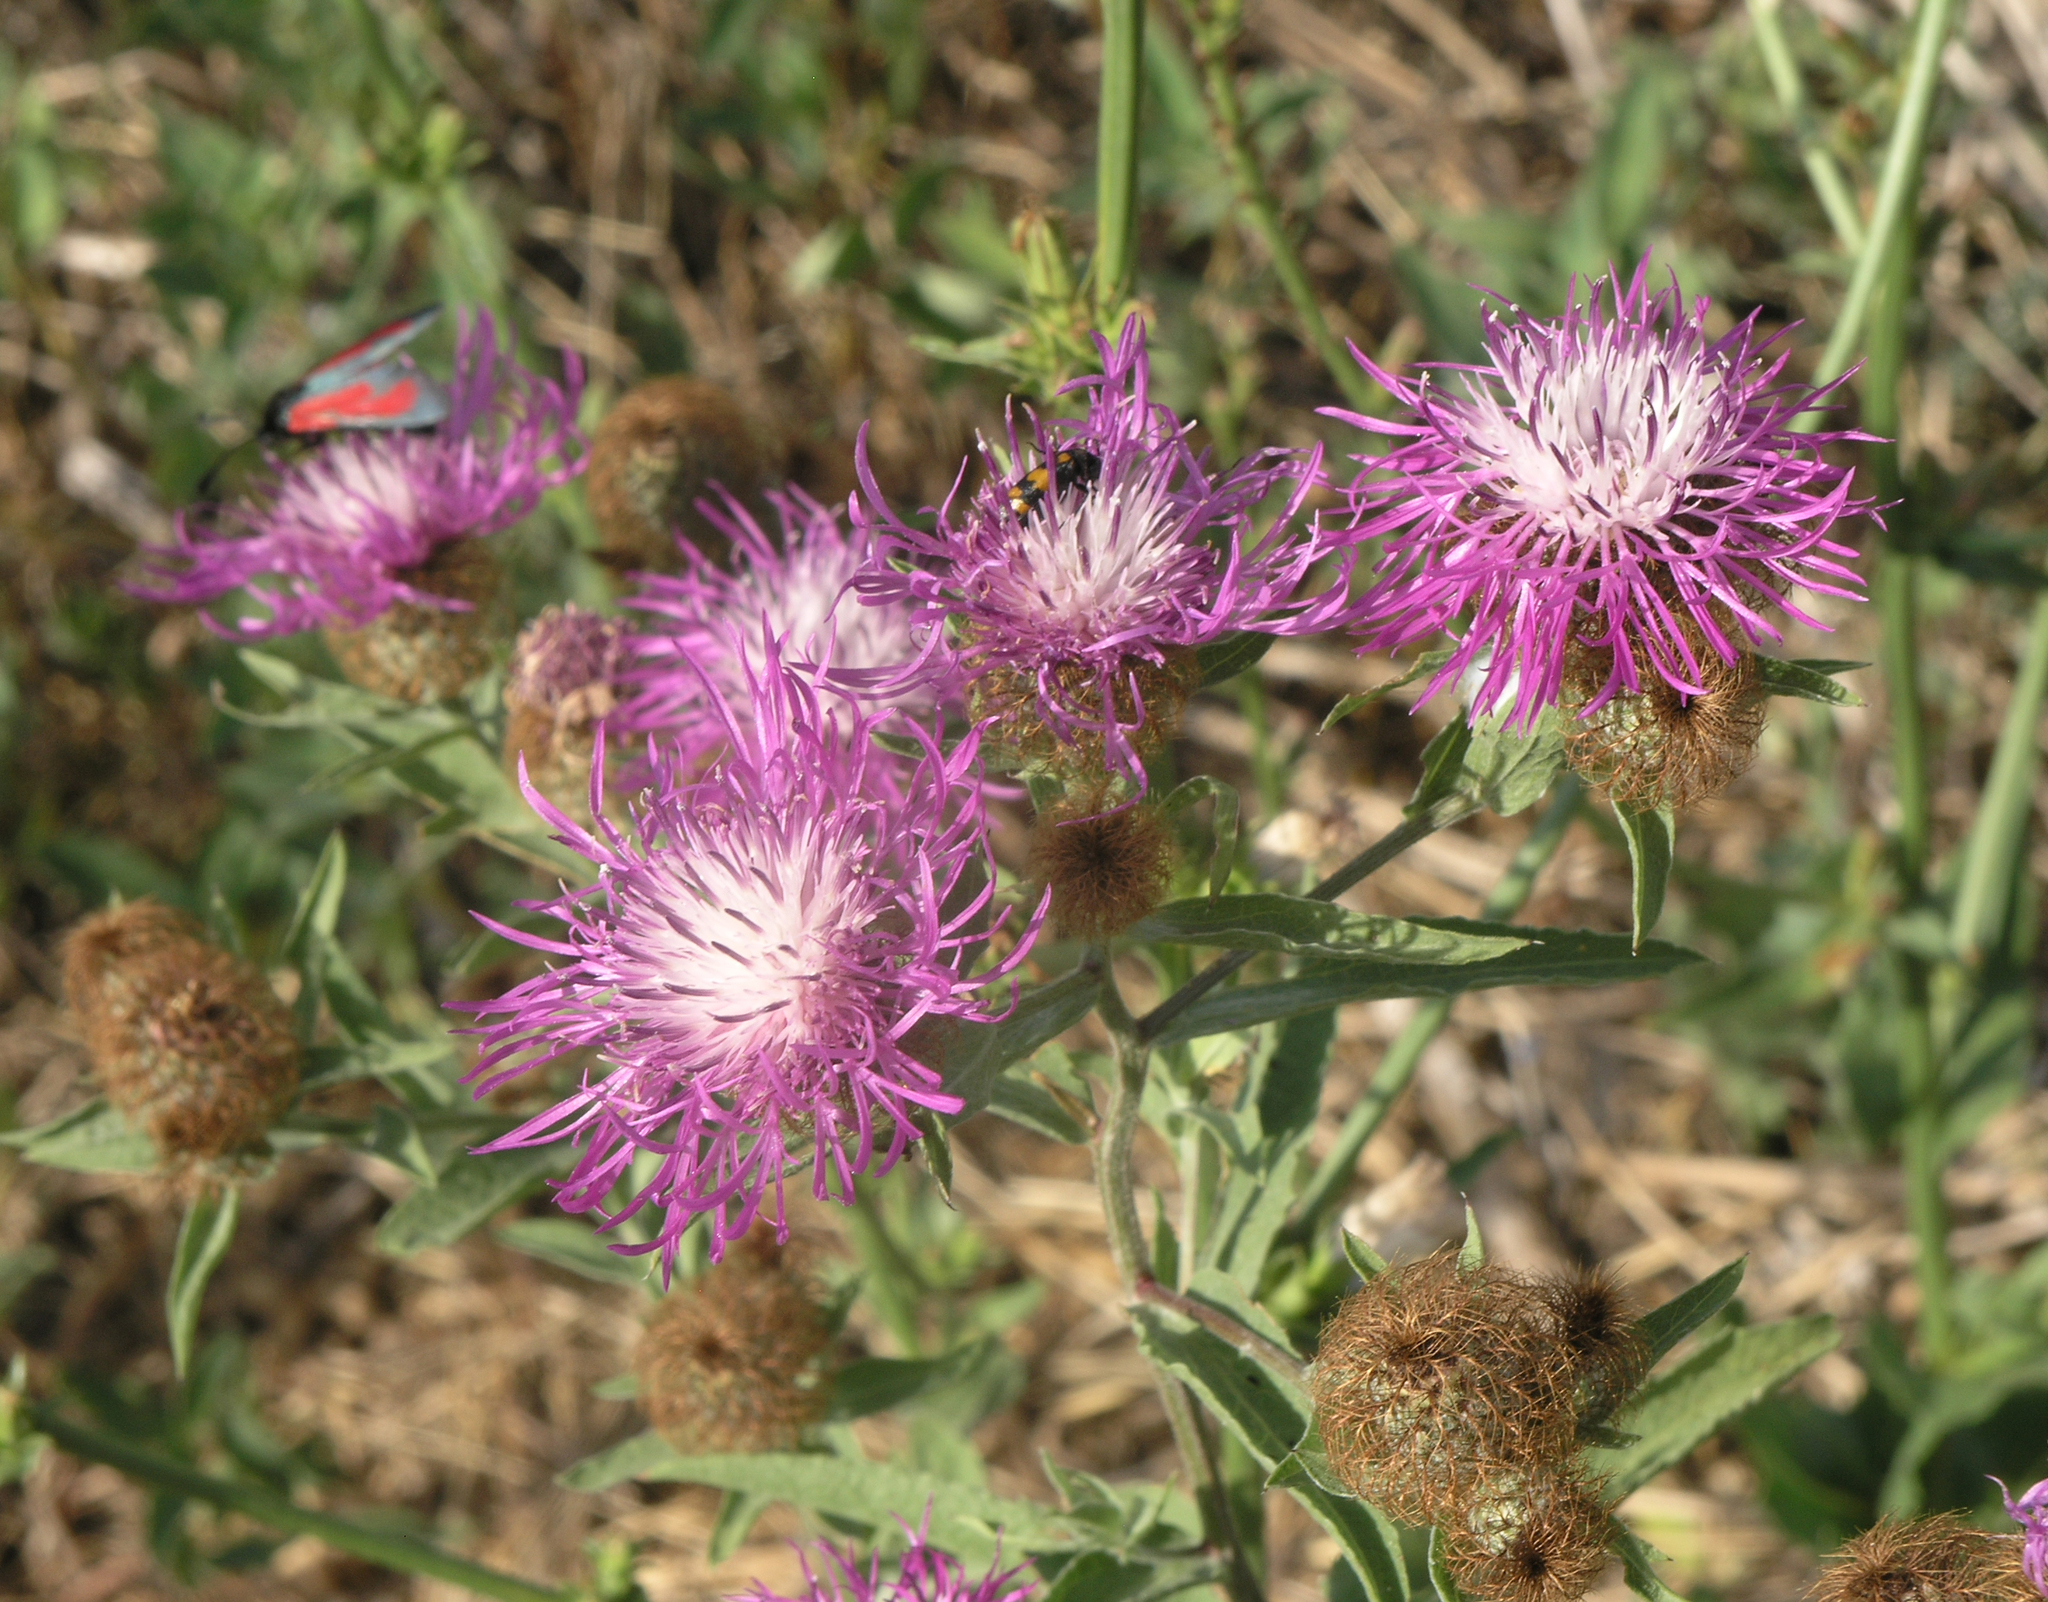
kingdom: Plantae
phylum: Tracheophyta
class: Magnoliopsida
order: Asterales
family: Asteraceae
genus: Centaurea
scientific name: Centaurea pseudophrygia
